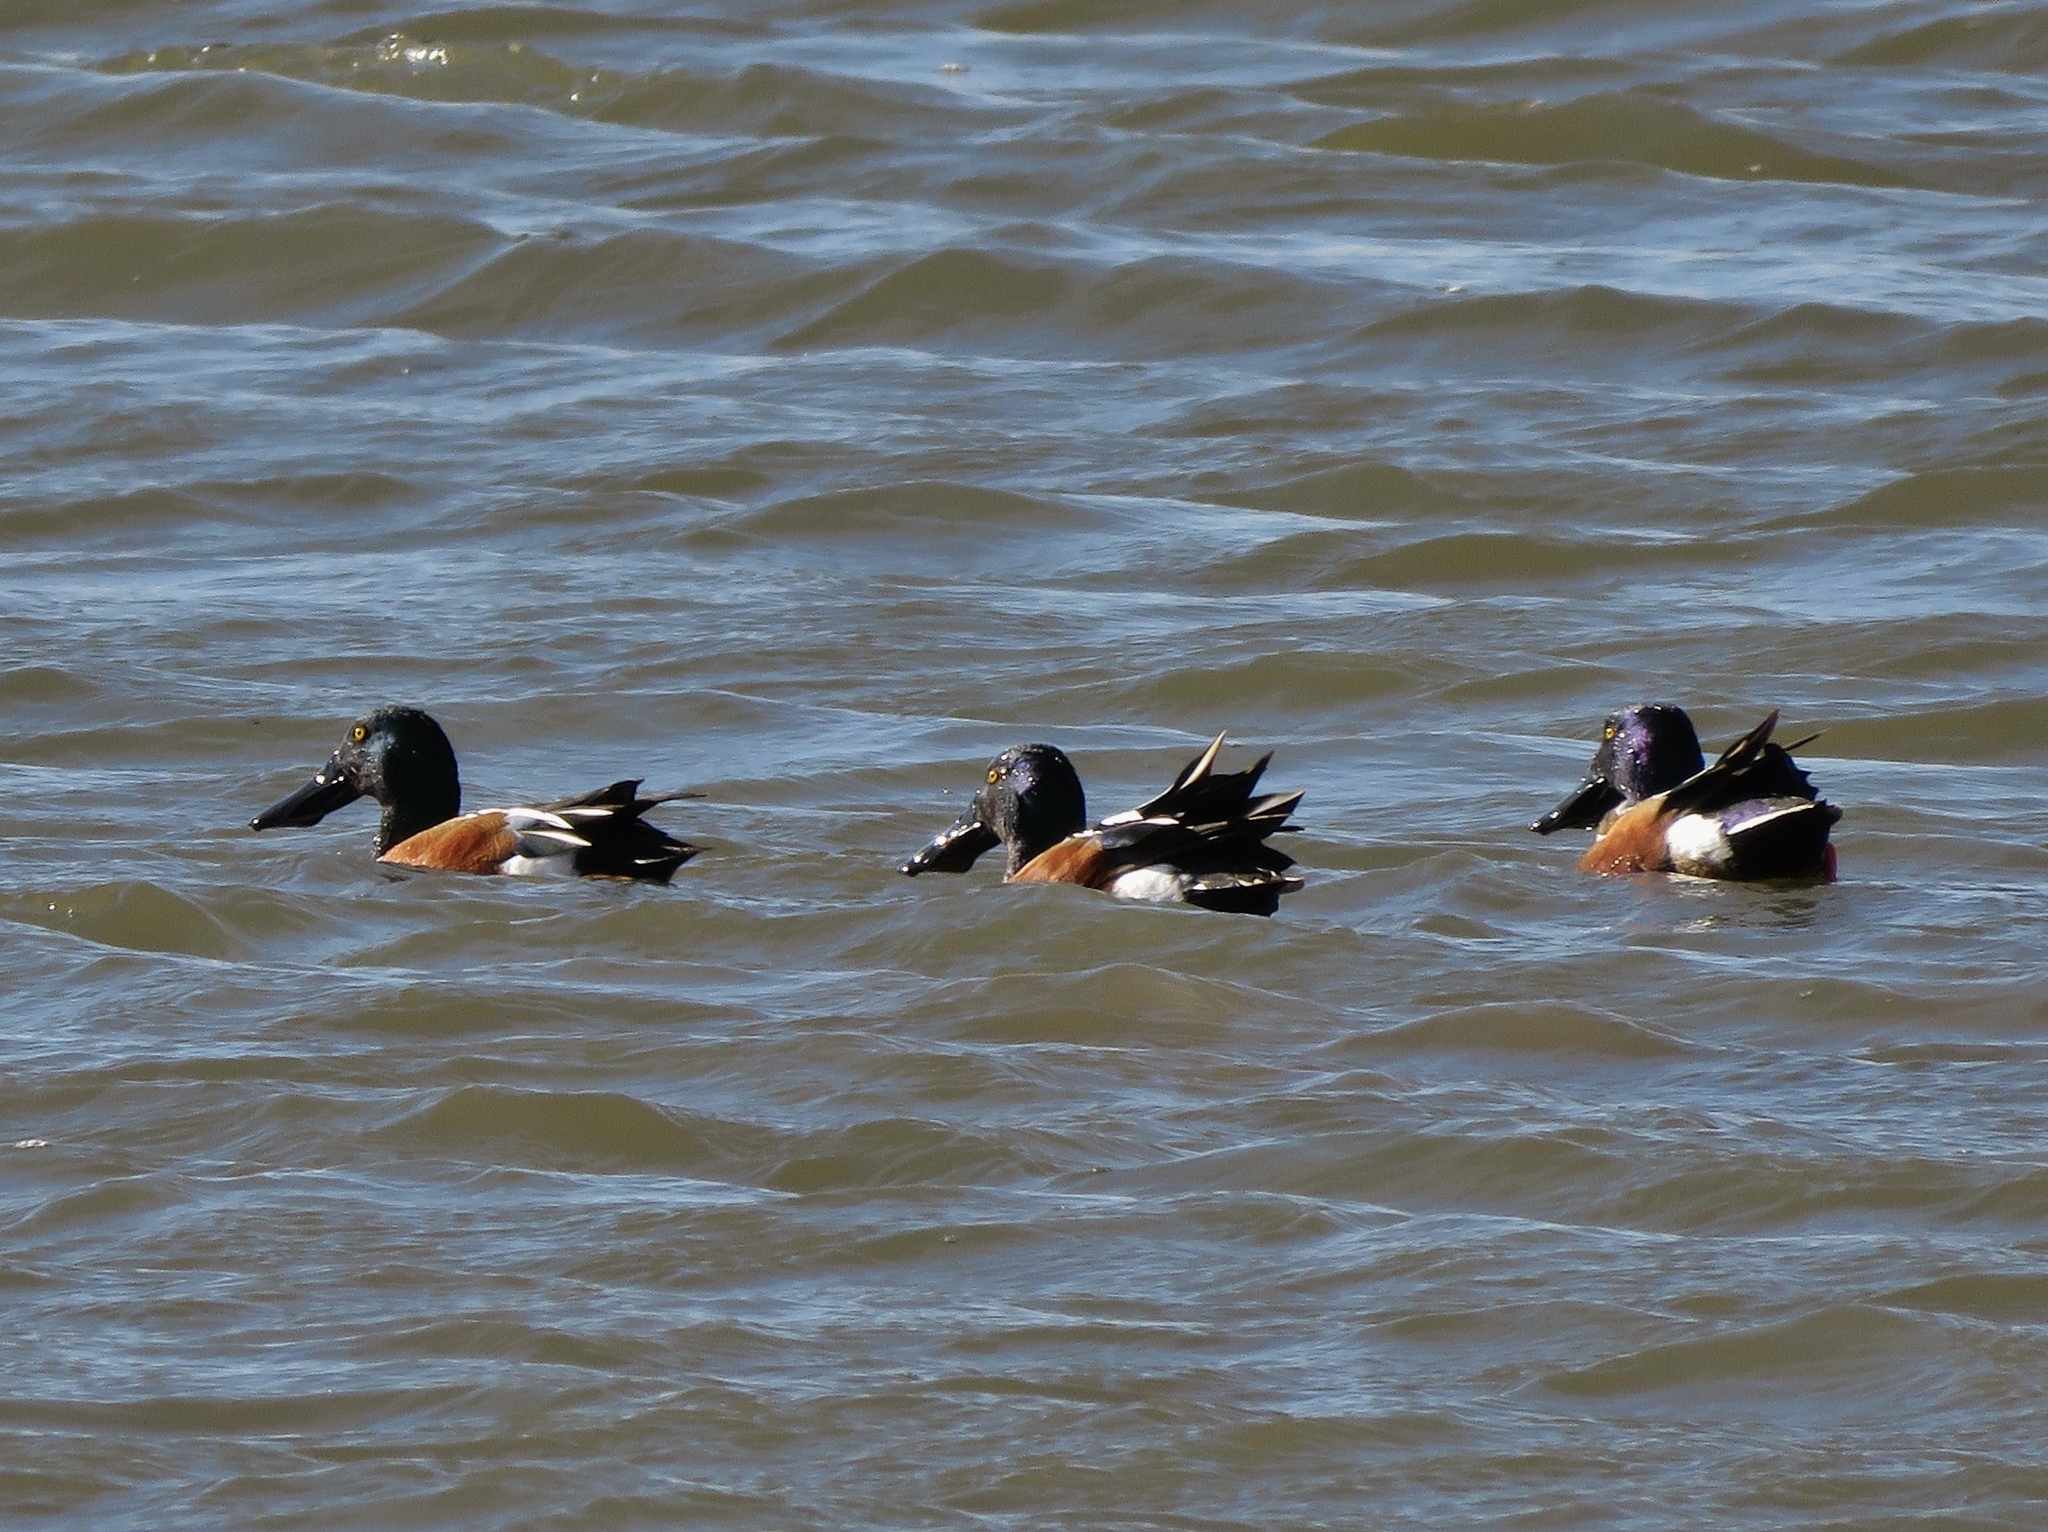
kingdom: Animalia
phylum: Chordata
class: Aves
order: Anseriformes
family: Anatidae
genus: Spatula
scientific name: Spatula clypeata
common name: Northern shoveler
